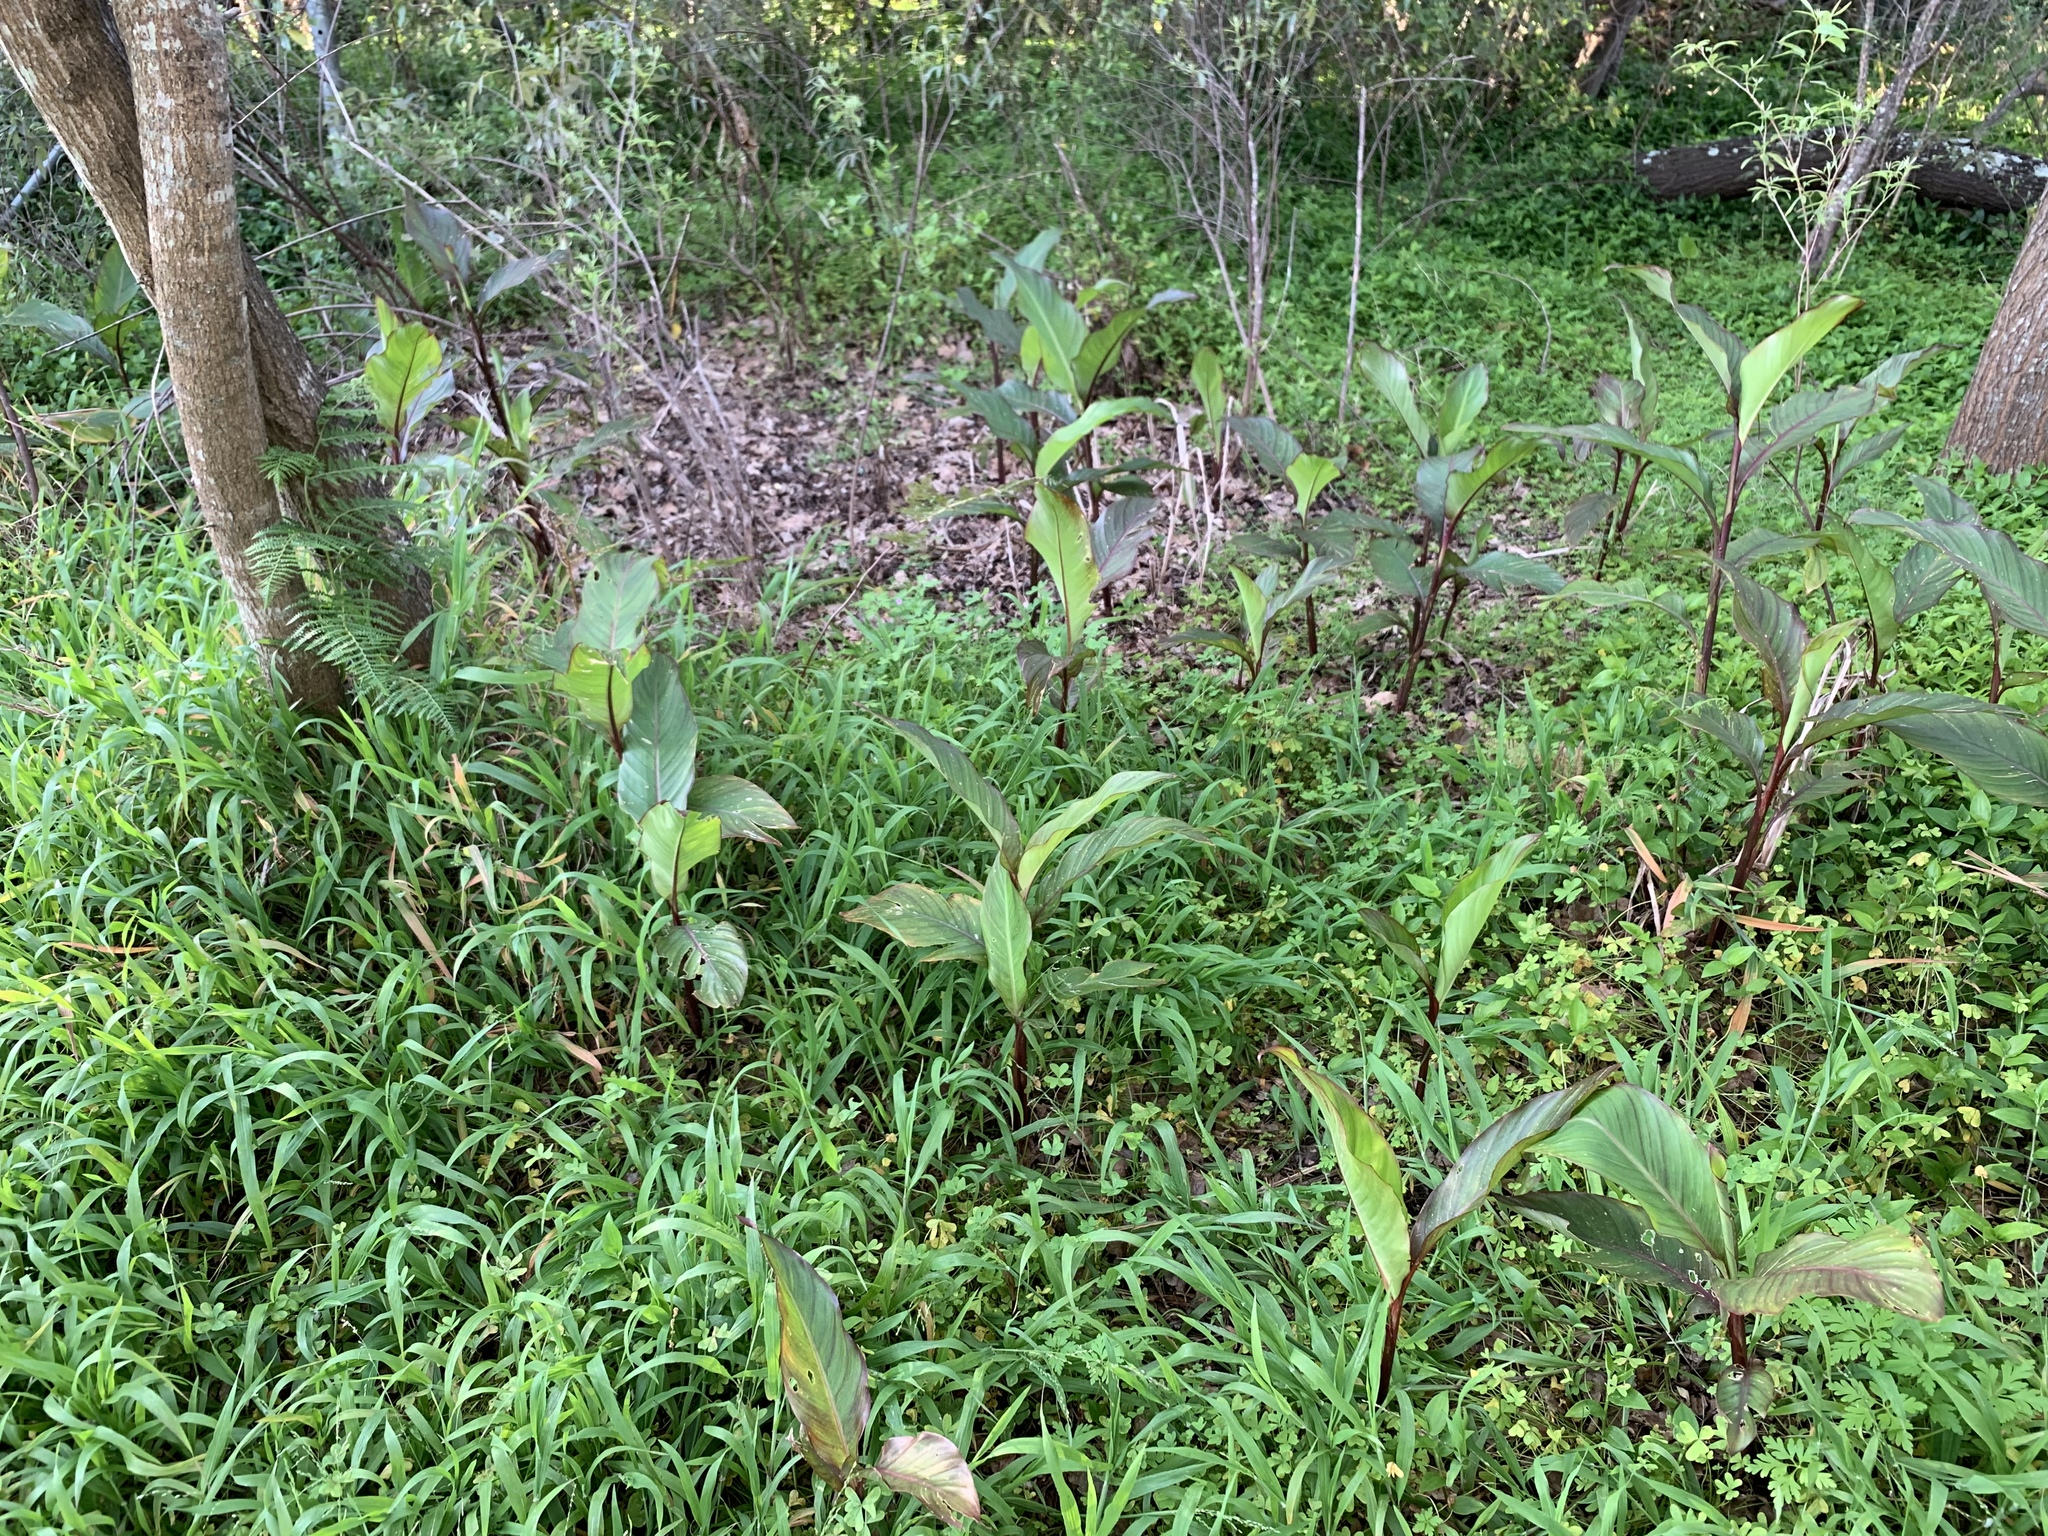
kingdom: Plantae
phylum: Tracheophyta
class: Liliopsida
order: Zingiberales
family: Cannaceae
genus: Canna
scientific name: Canna indica
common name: Indian shot
